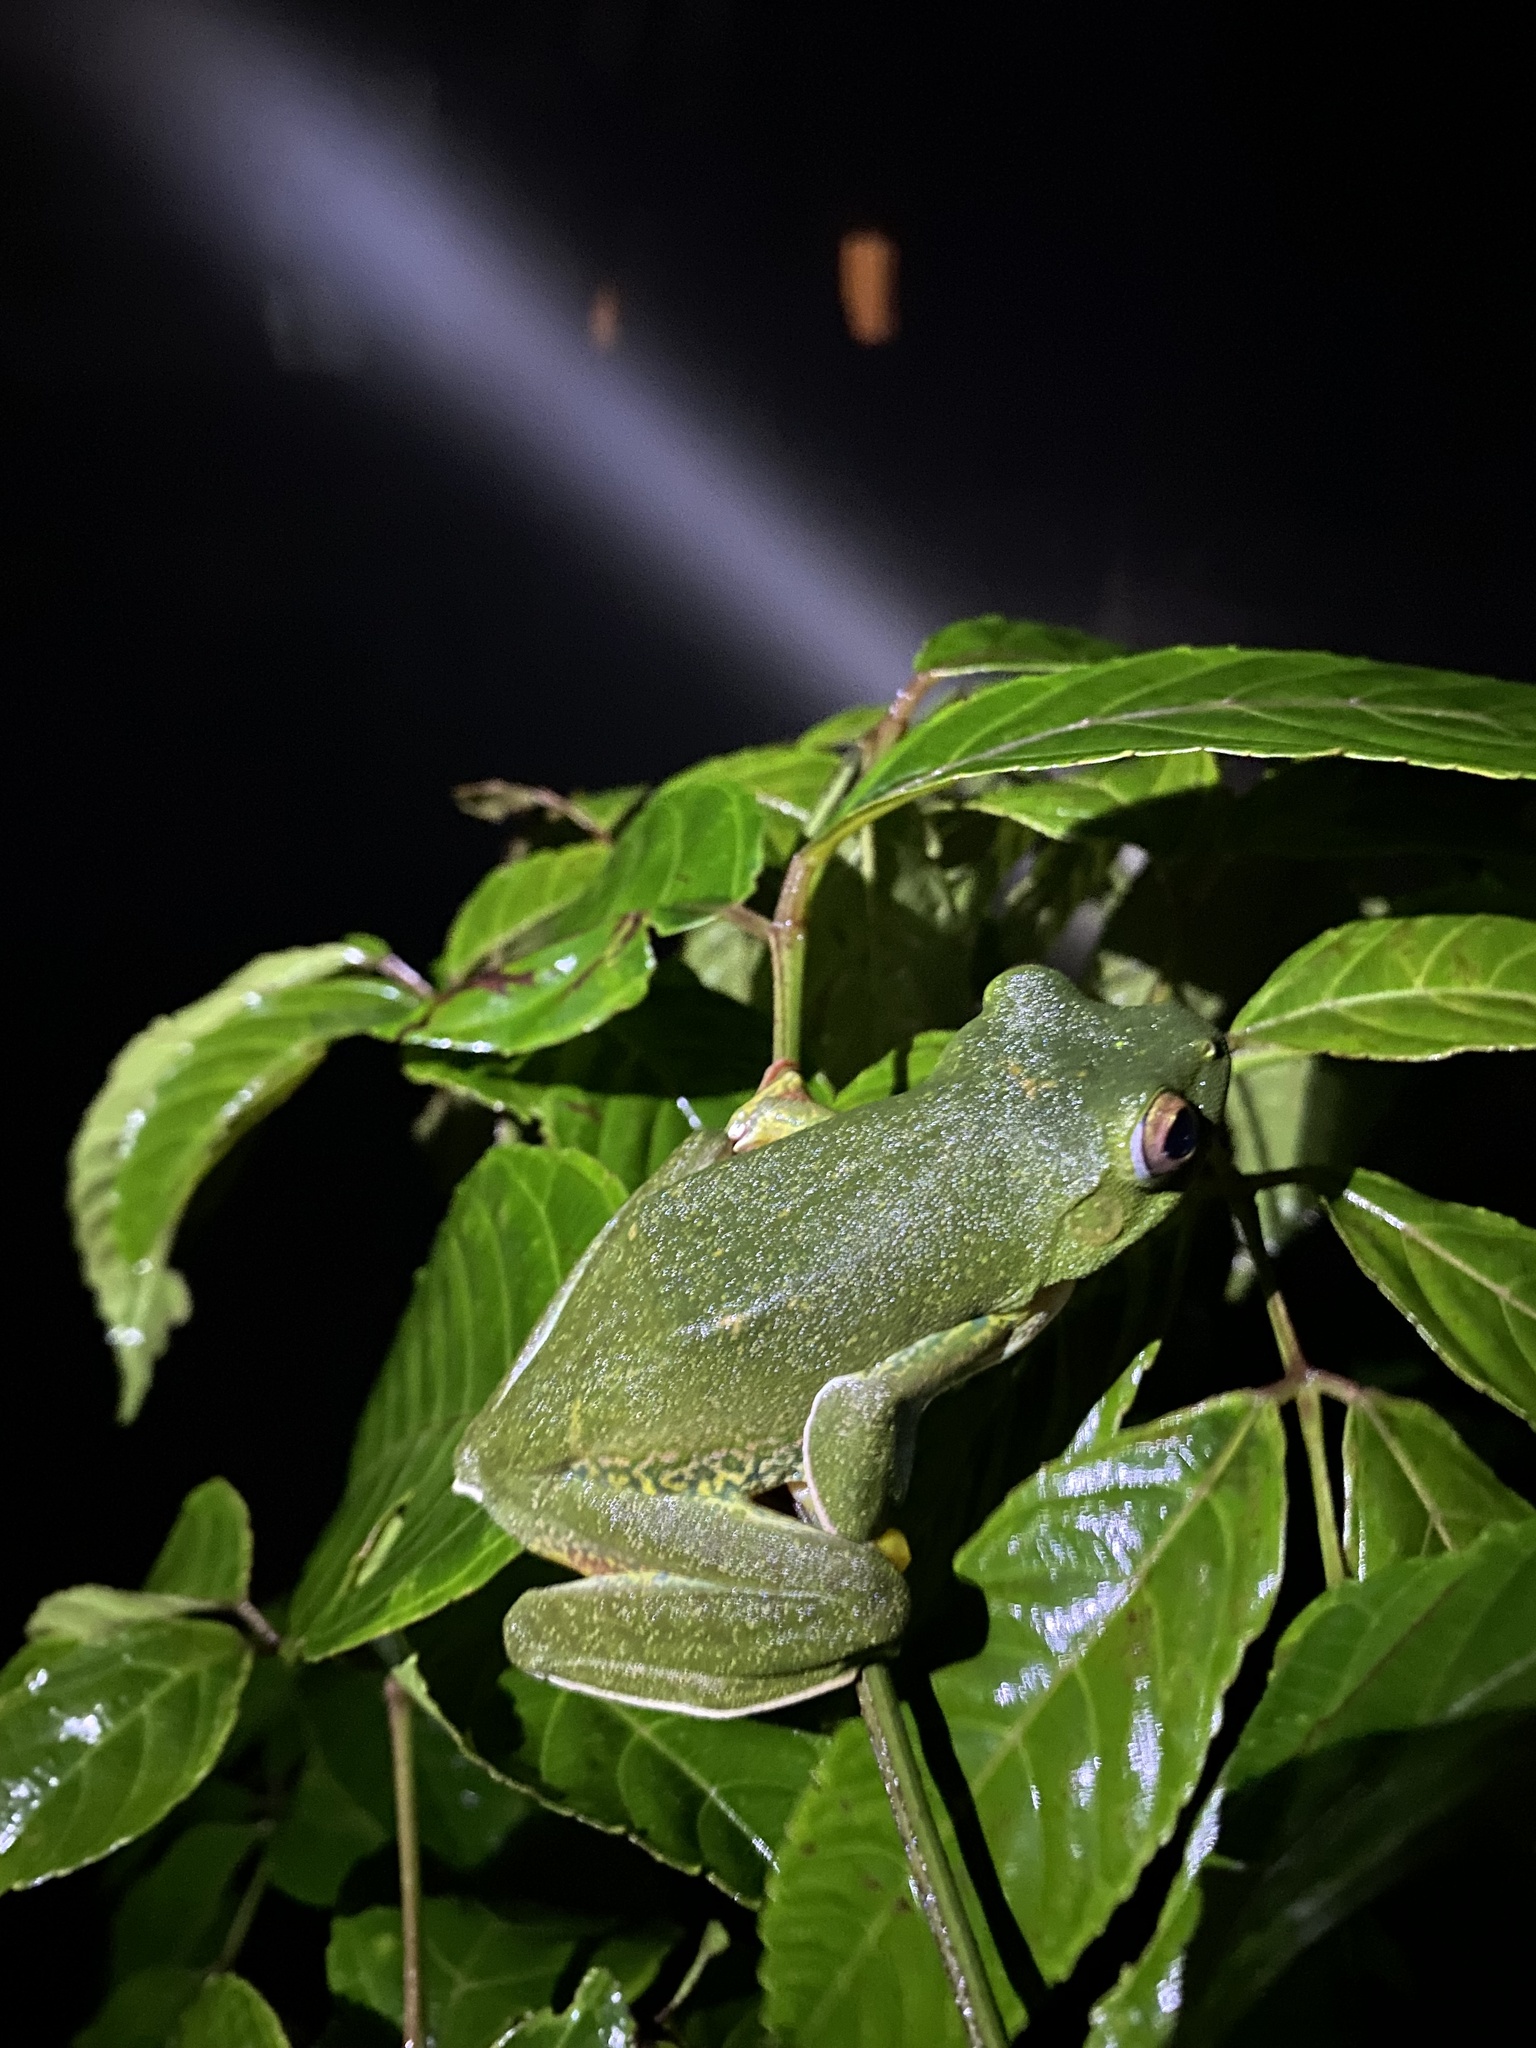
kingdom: Animalia
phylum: Chordata
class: Amphibia
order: Anura
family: Rhacophoridae
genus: Rhacophorus
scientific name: Rhacophorus malabaricus
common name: Malabar gliding frog
